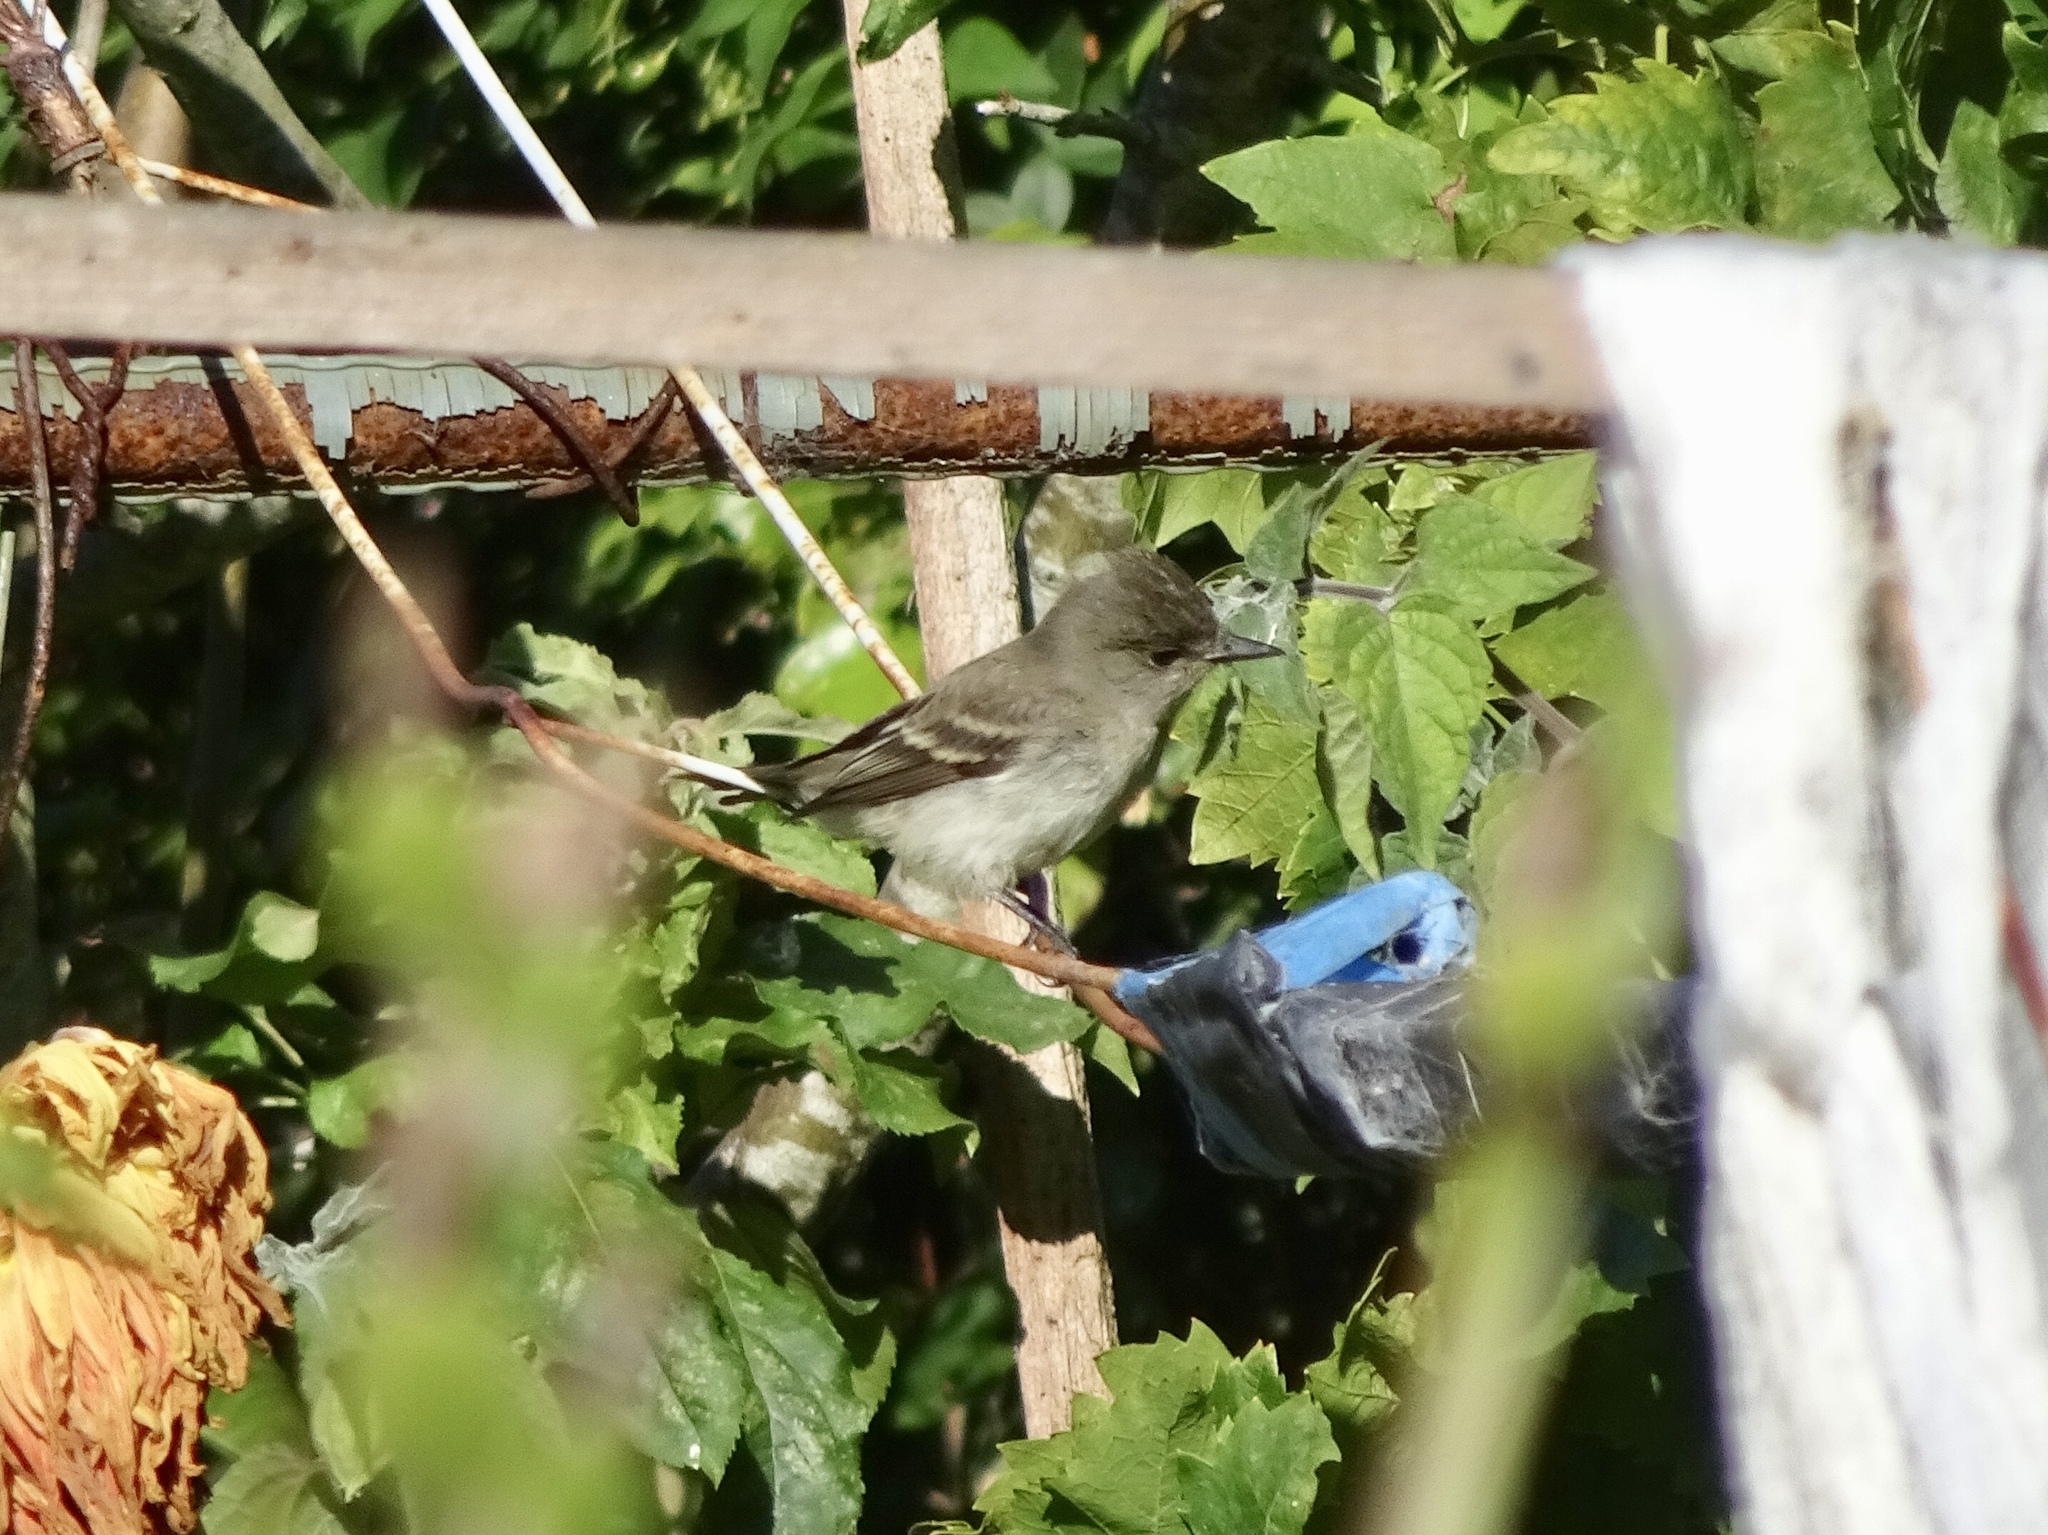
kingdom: Animalia
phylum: Chordata
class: Aves
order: Passeriformes
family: Tyrannidae
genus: Contopus
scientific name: Contopus sordidulus
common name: Western wood-pewee
